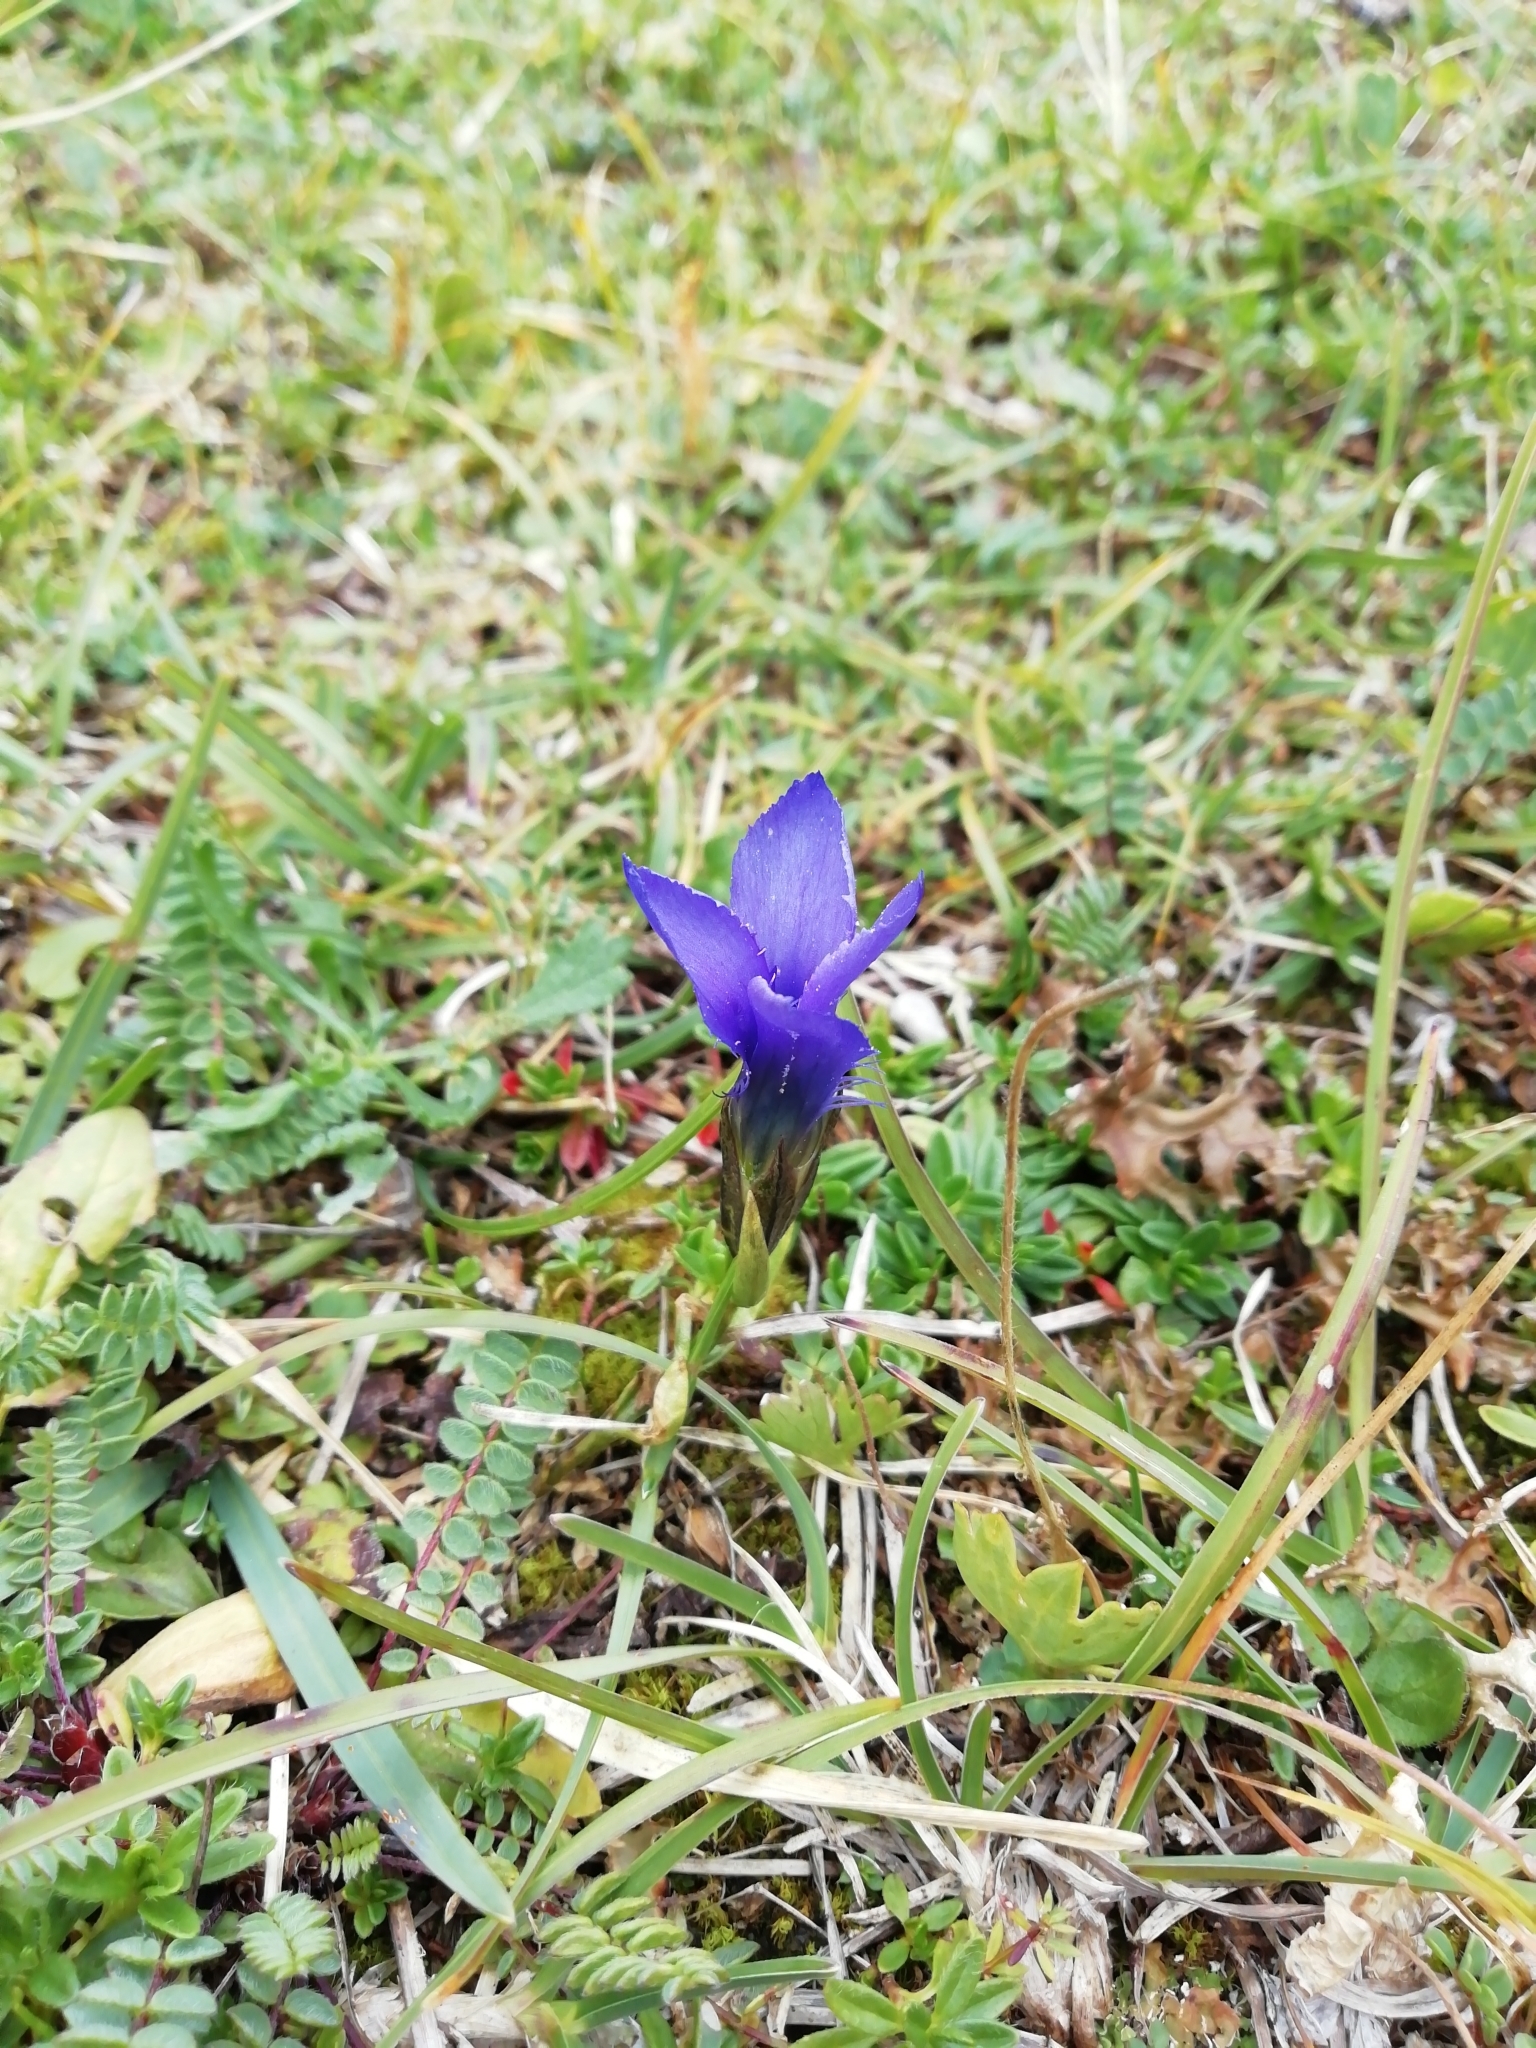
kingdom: Plantae
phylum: Tracheophyta
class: Magnoliopsida
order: Gentianales
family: Gentianaceae
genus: Gentianopsis
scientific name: Gentianopsis ciliata
